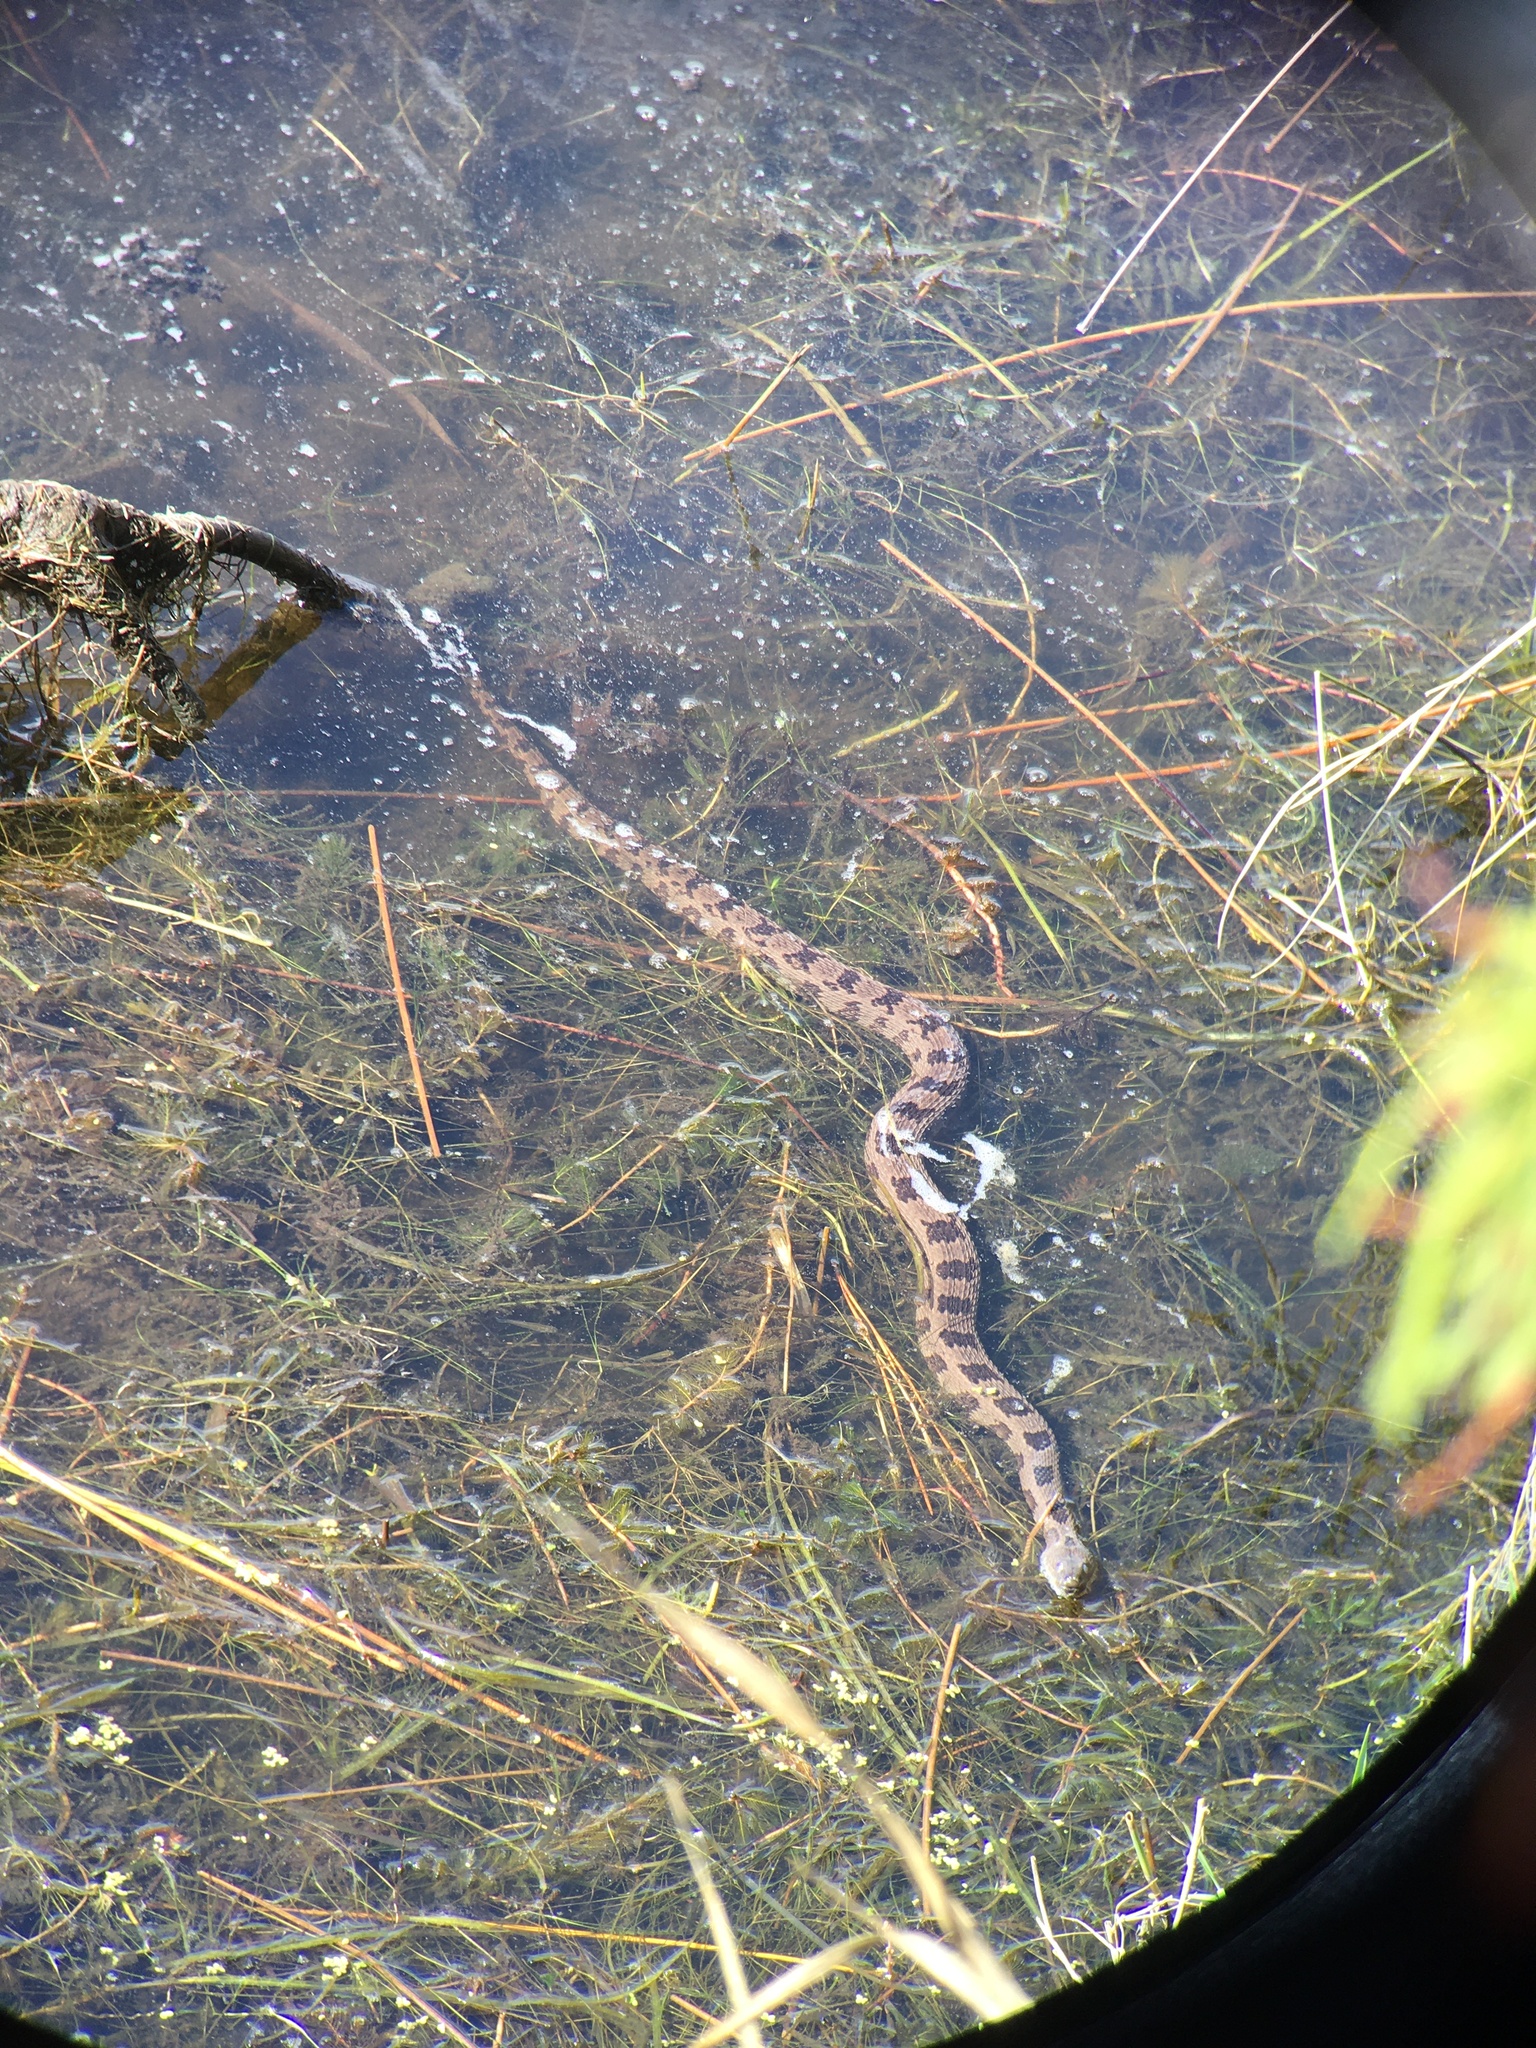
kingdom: Animalia
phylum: Chordata
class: Squamata
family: Colubridae
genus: Nerodia
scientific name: Nerodia taxispilota
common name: Brown water snake
